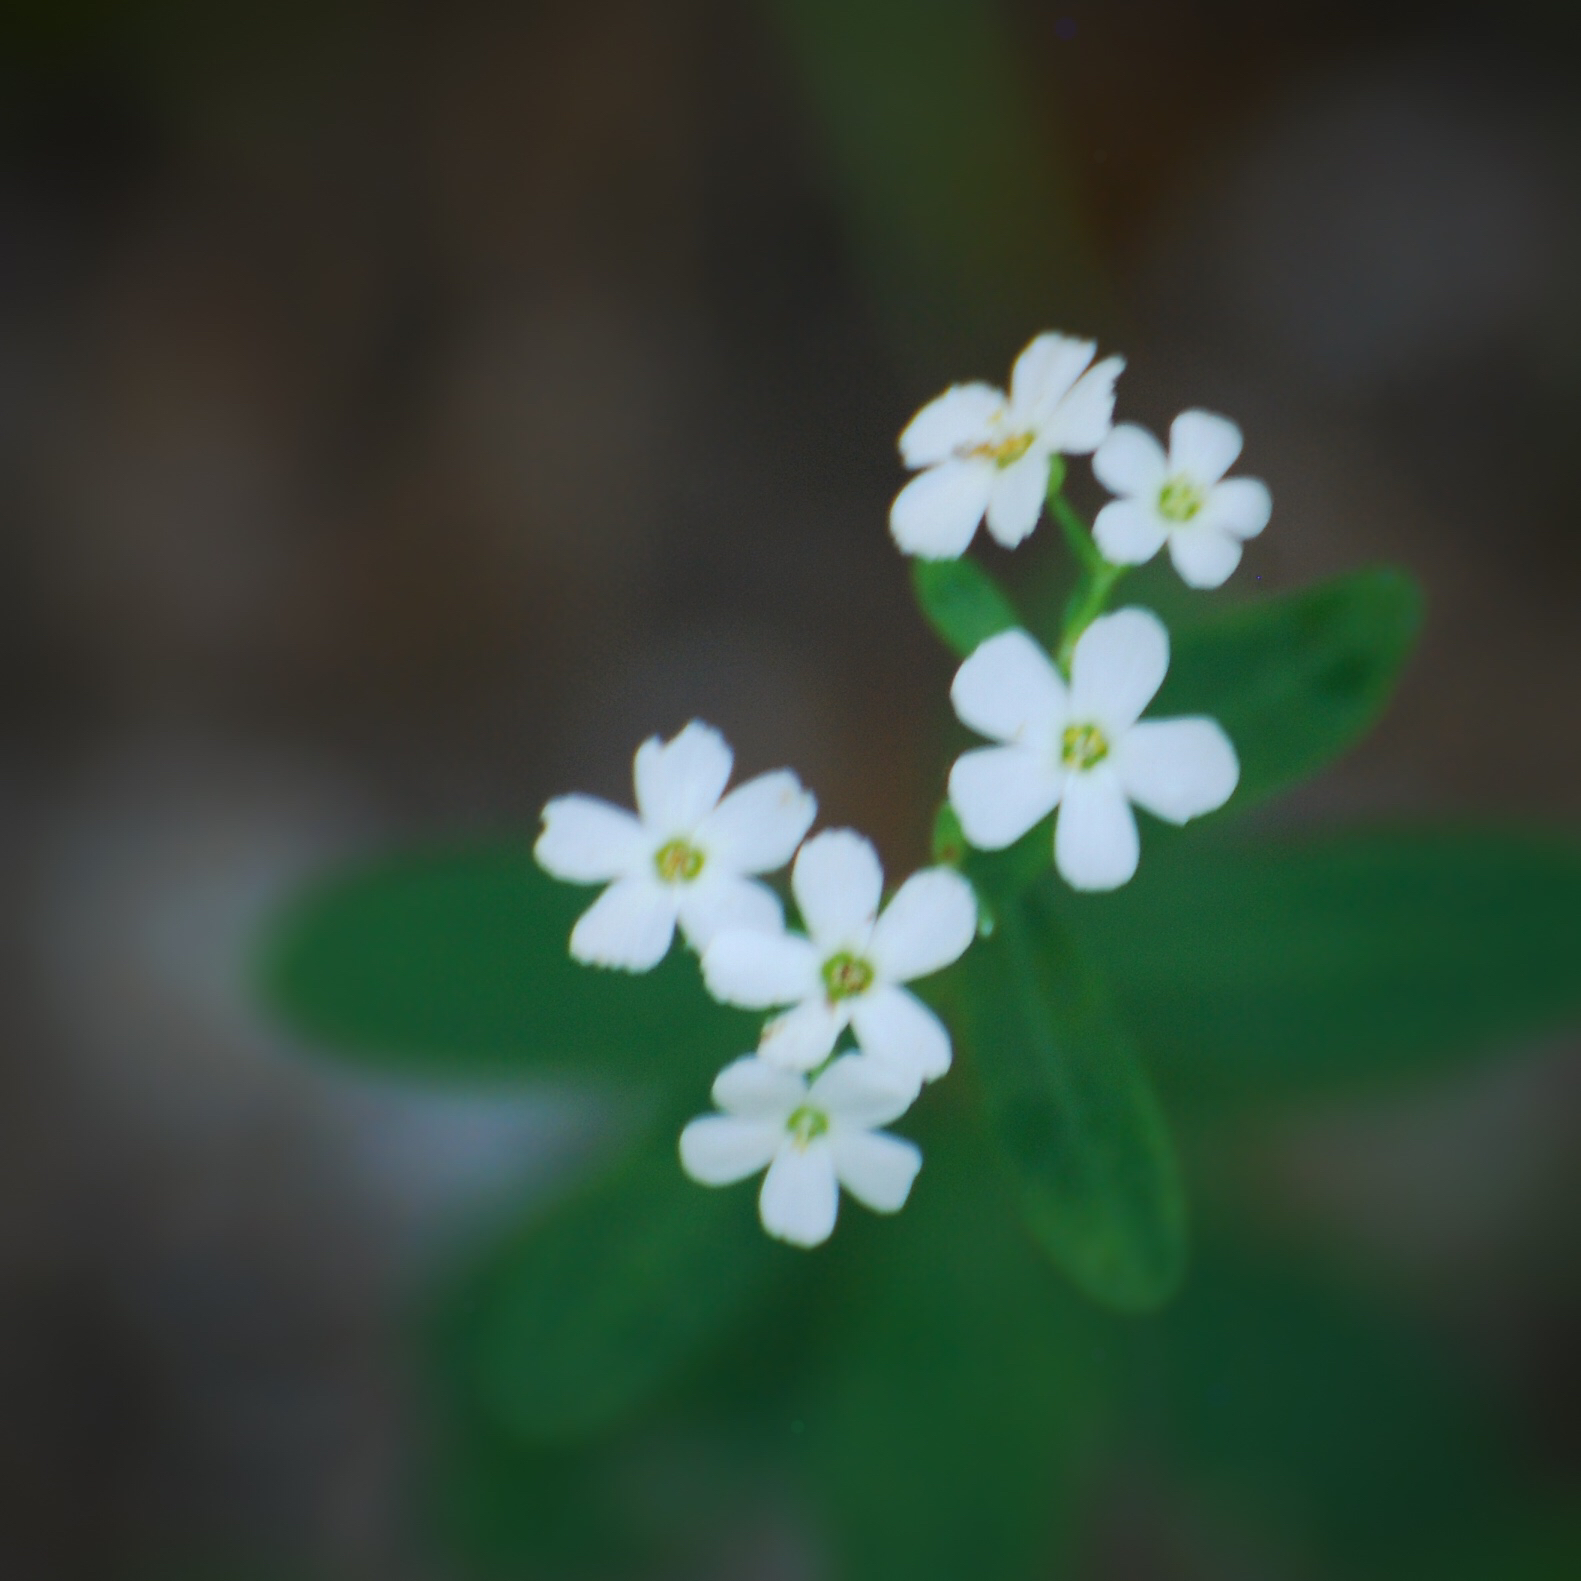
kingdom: Plantae
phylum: Tracheophyta
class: Magnoliopsida
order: Malpighiales
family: Euphorbiaceae
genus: Euphorbia
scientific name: Euphorbia corollata
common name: Flowering spurge
